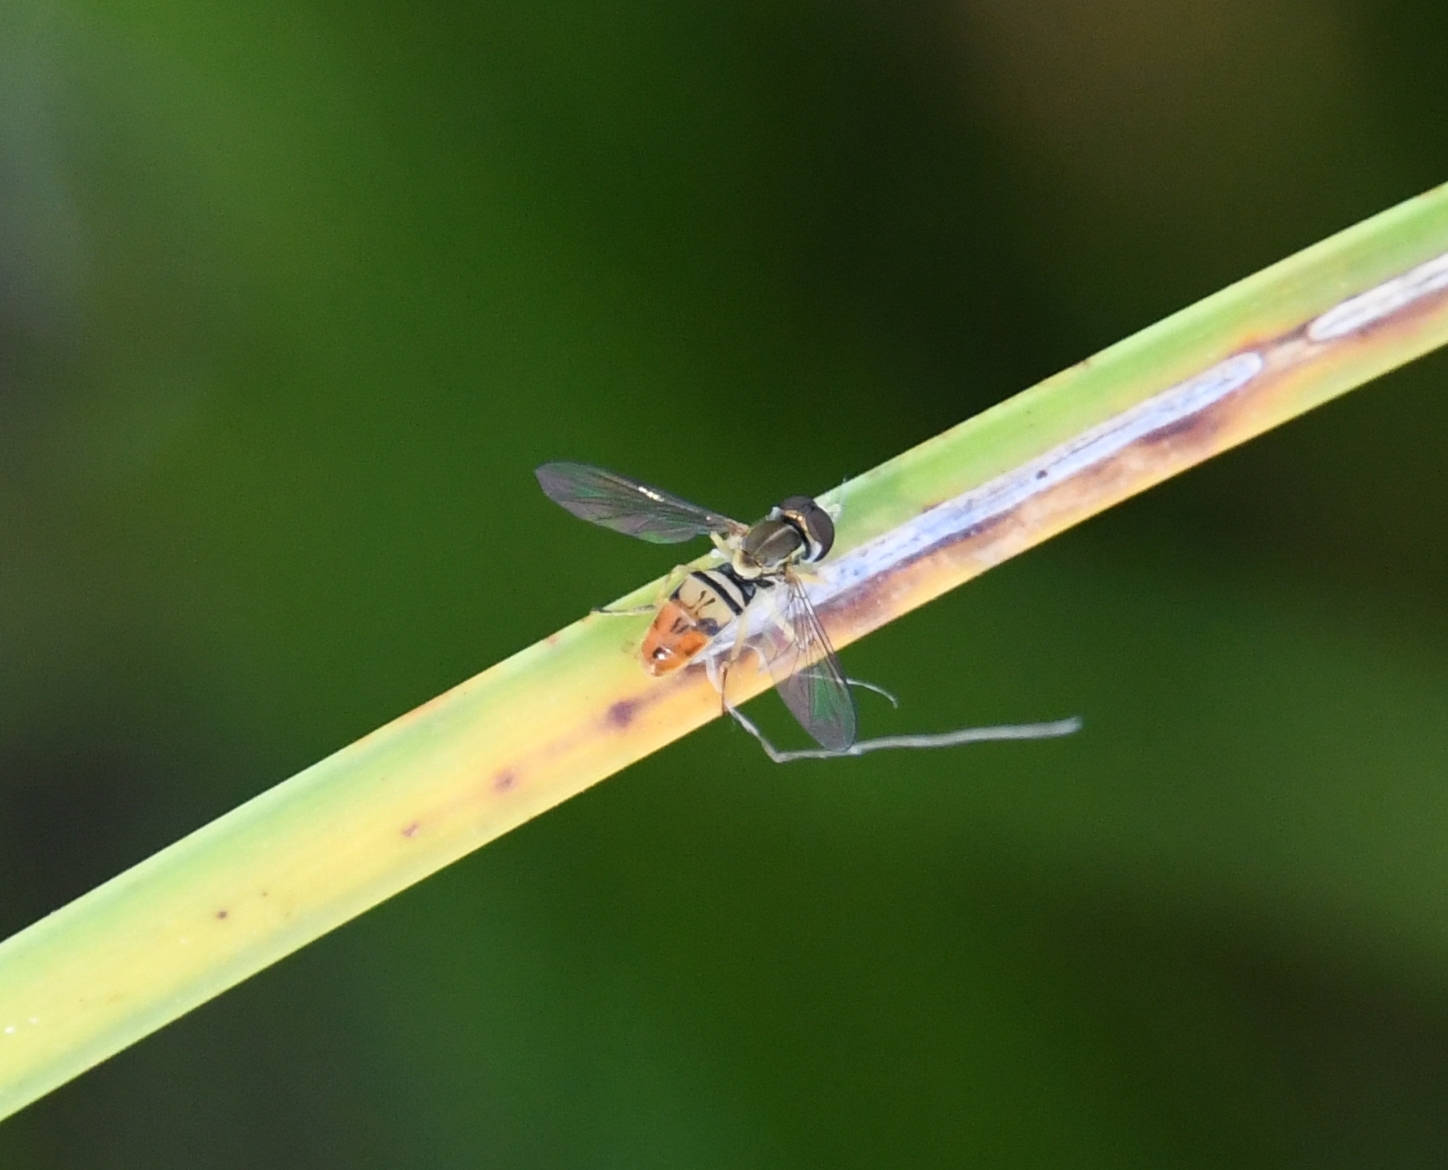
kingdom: Animalia
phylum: Arthropoda
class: Insecta
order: Diptera
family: Syrphidae
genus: Toxomerus
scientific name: Toxomerus marginatus
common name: Syrphid fly
